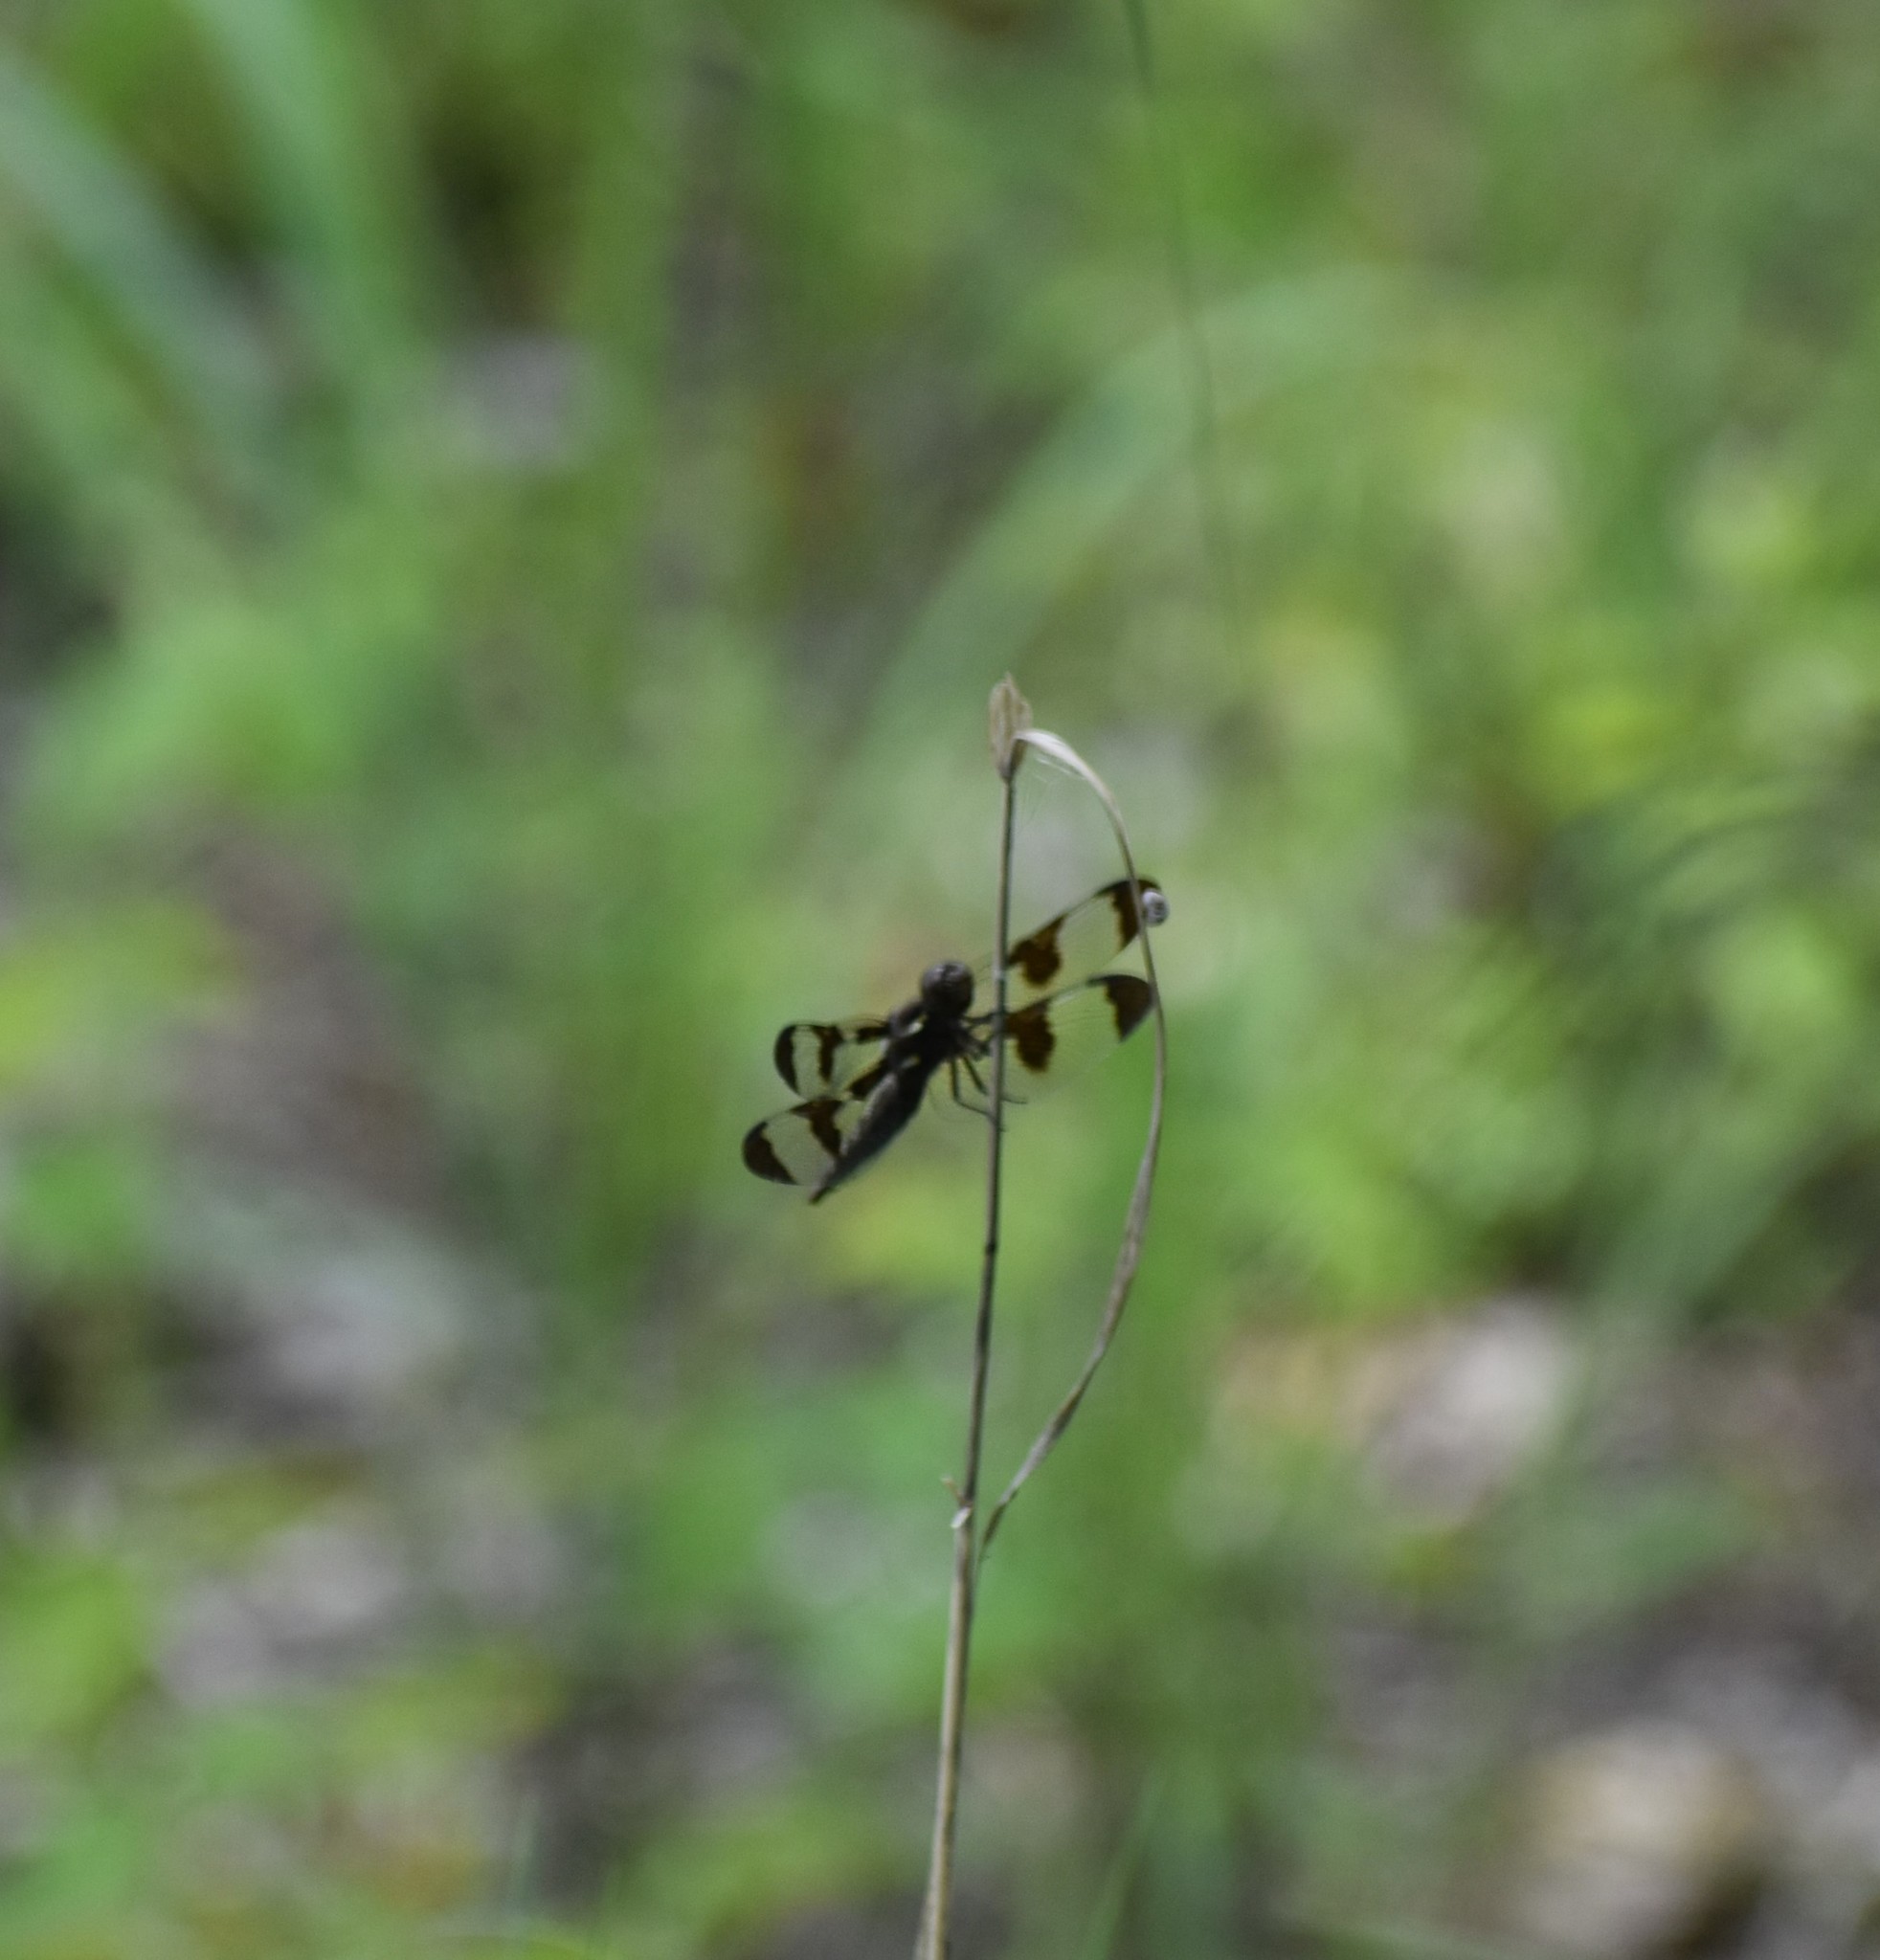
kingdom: Animalia
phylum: Arthropoda
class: Insecta
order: Odonata
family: Libellulidae
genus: Celithemis
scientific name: Celithemis fasciata
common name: Banded pennant
